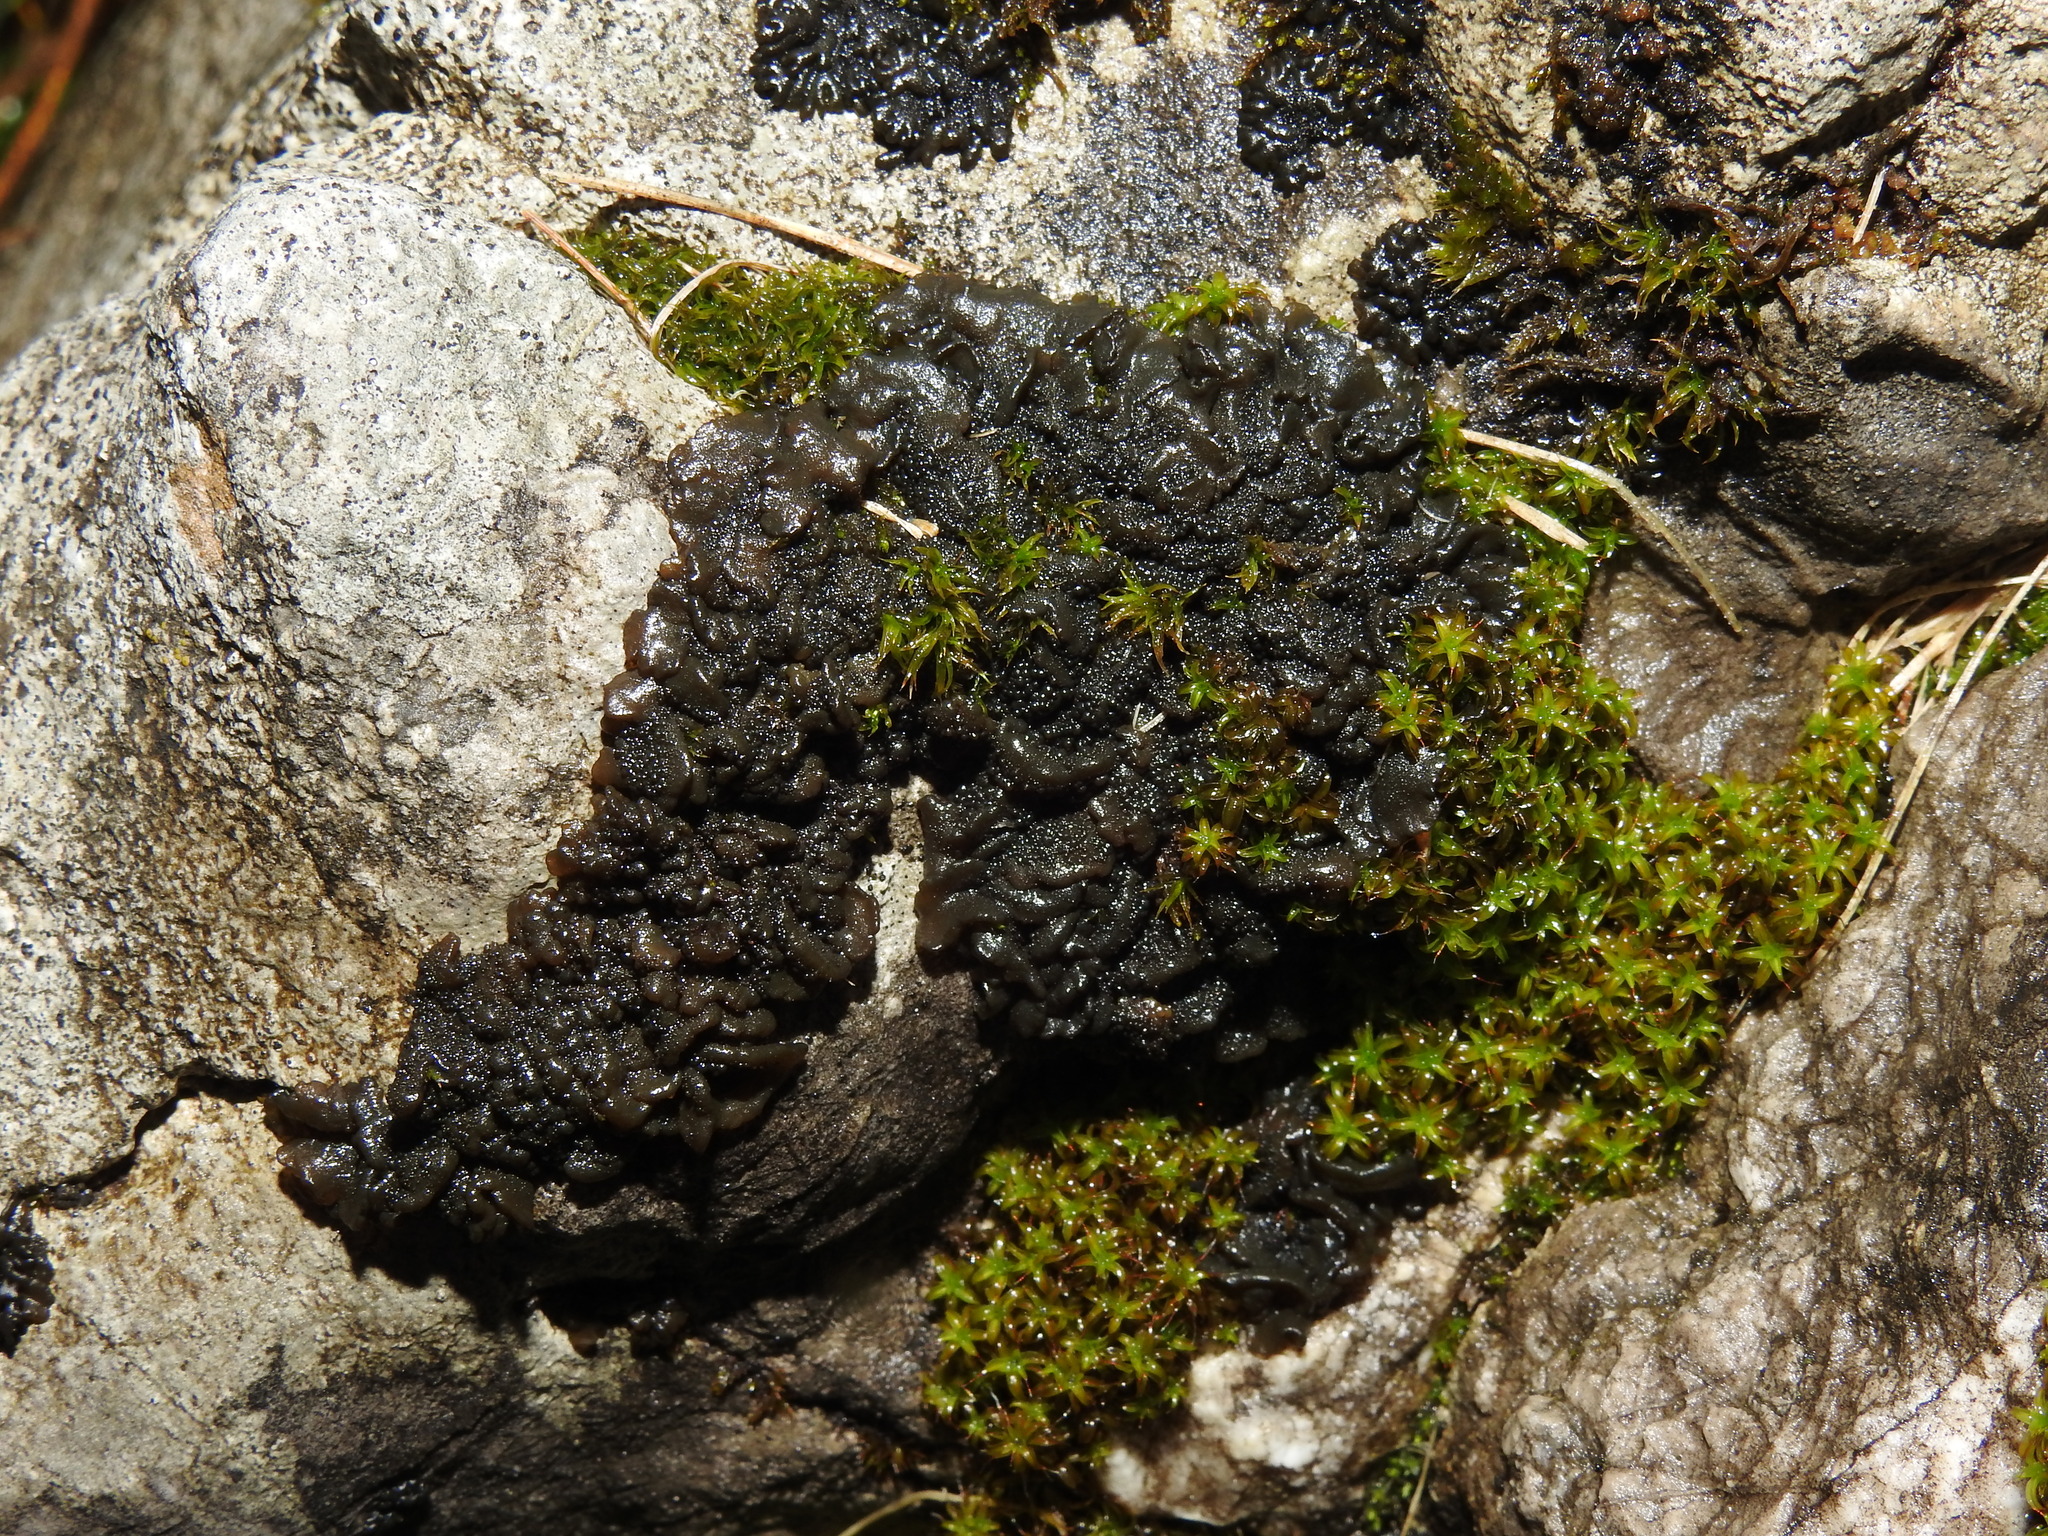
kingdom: Fungi
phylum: Ascomycota
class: Lecanoromycetes
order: Peltigerales
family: Collemataceae
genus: Lathagrium
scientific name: Lathagrium auriforme
